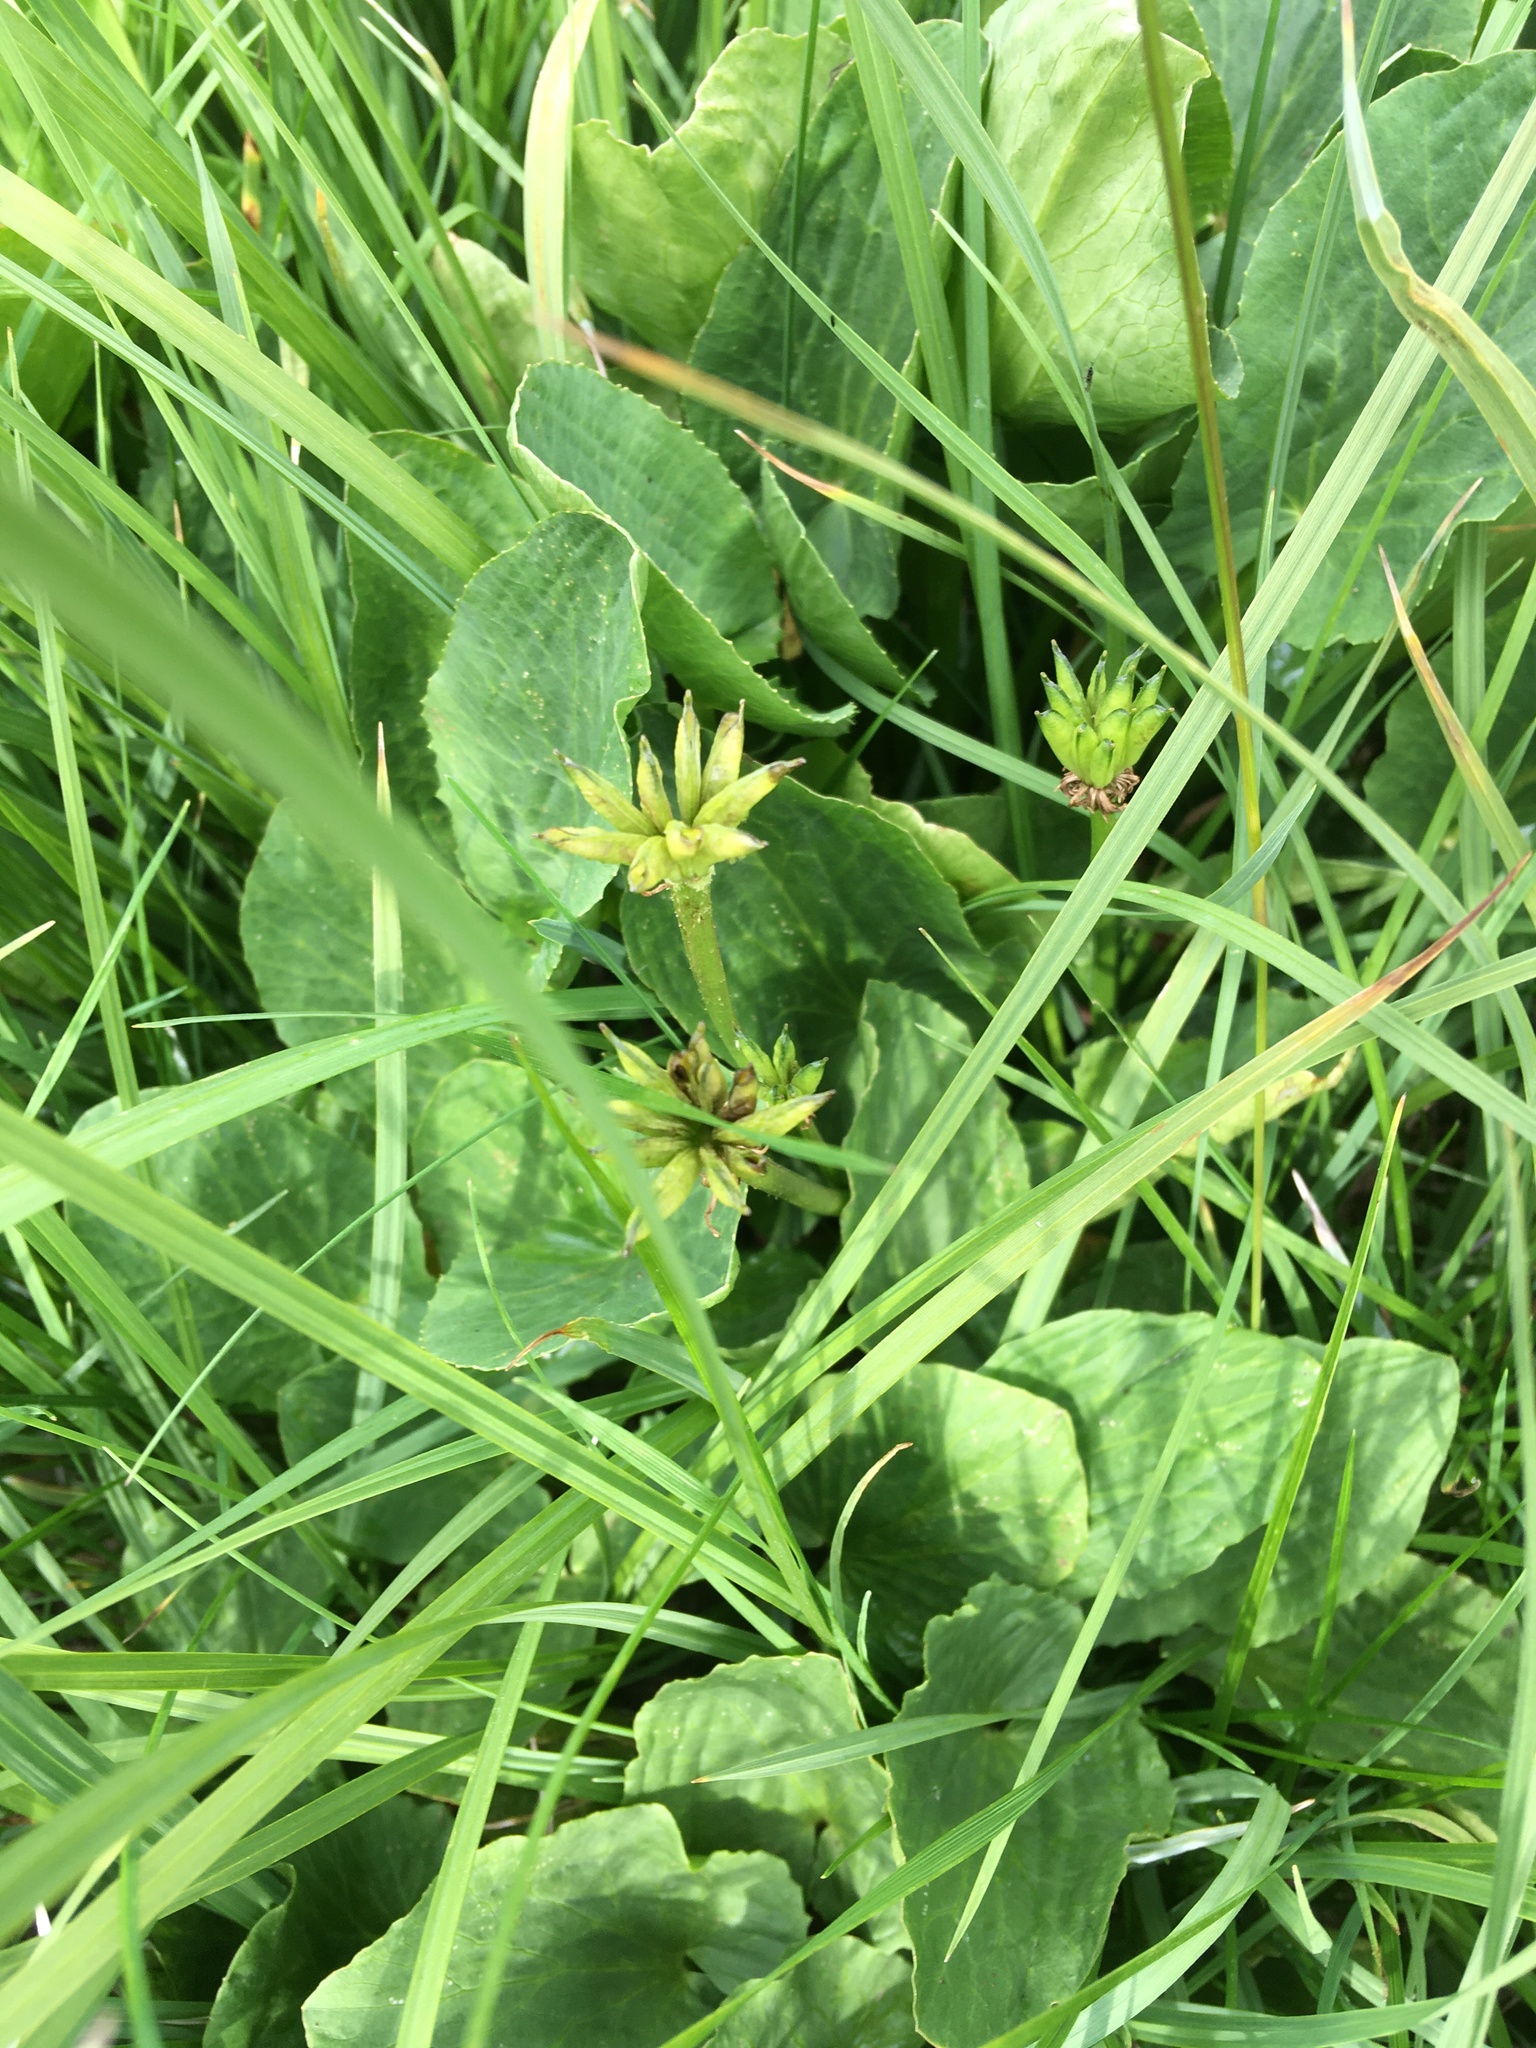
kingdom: Plantae
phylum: Tracheophyta
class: Magnoliopsida
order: Ranunculales
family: Ranunculaceae
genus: Caltha
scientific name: Caltha leptosepala
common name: Elkslip
